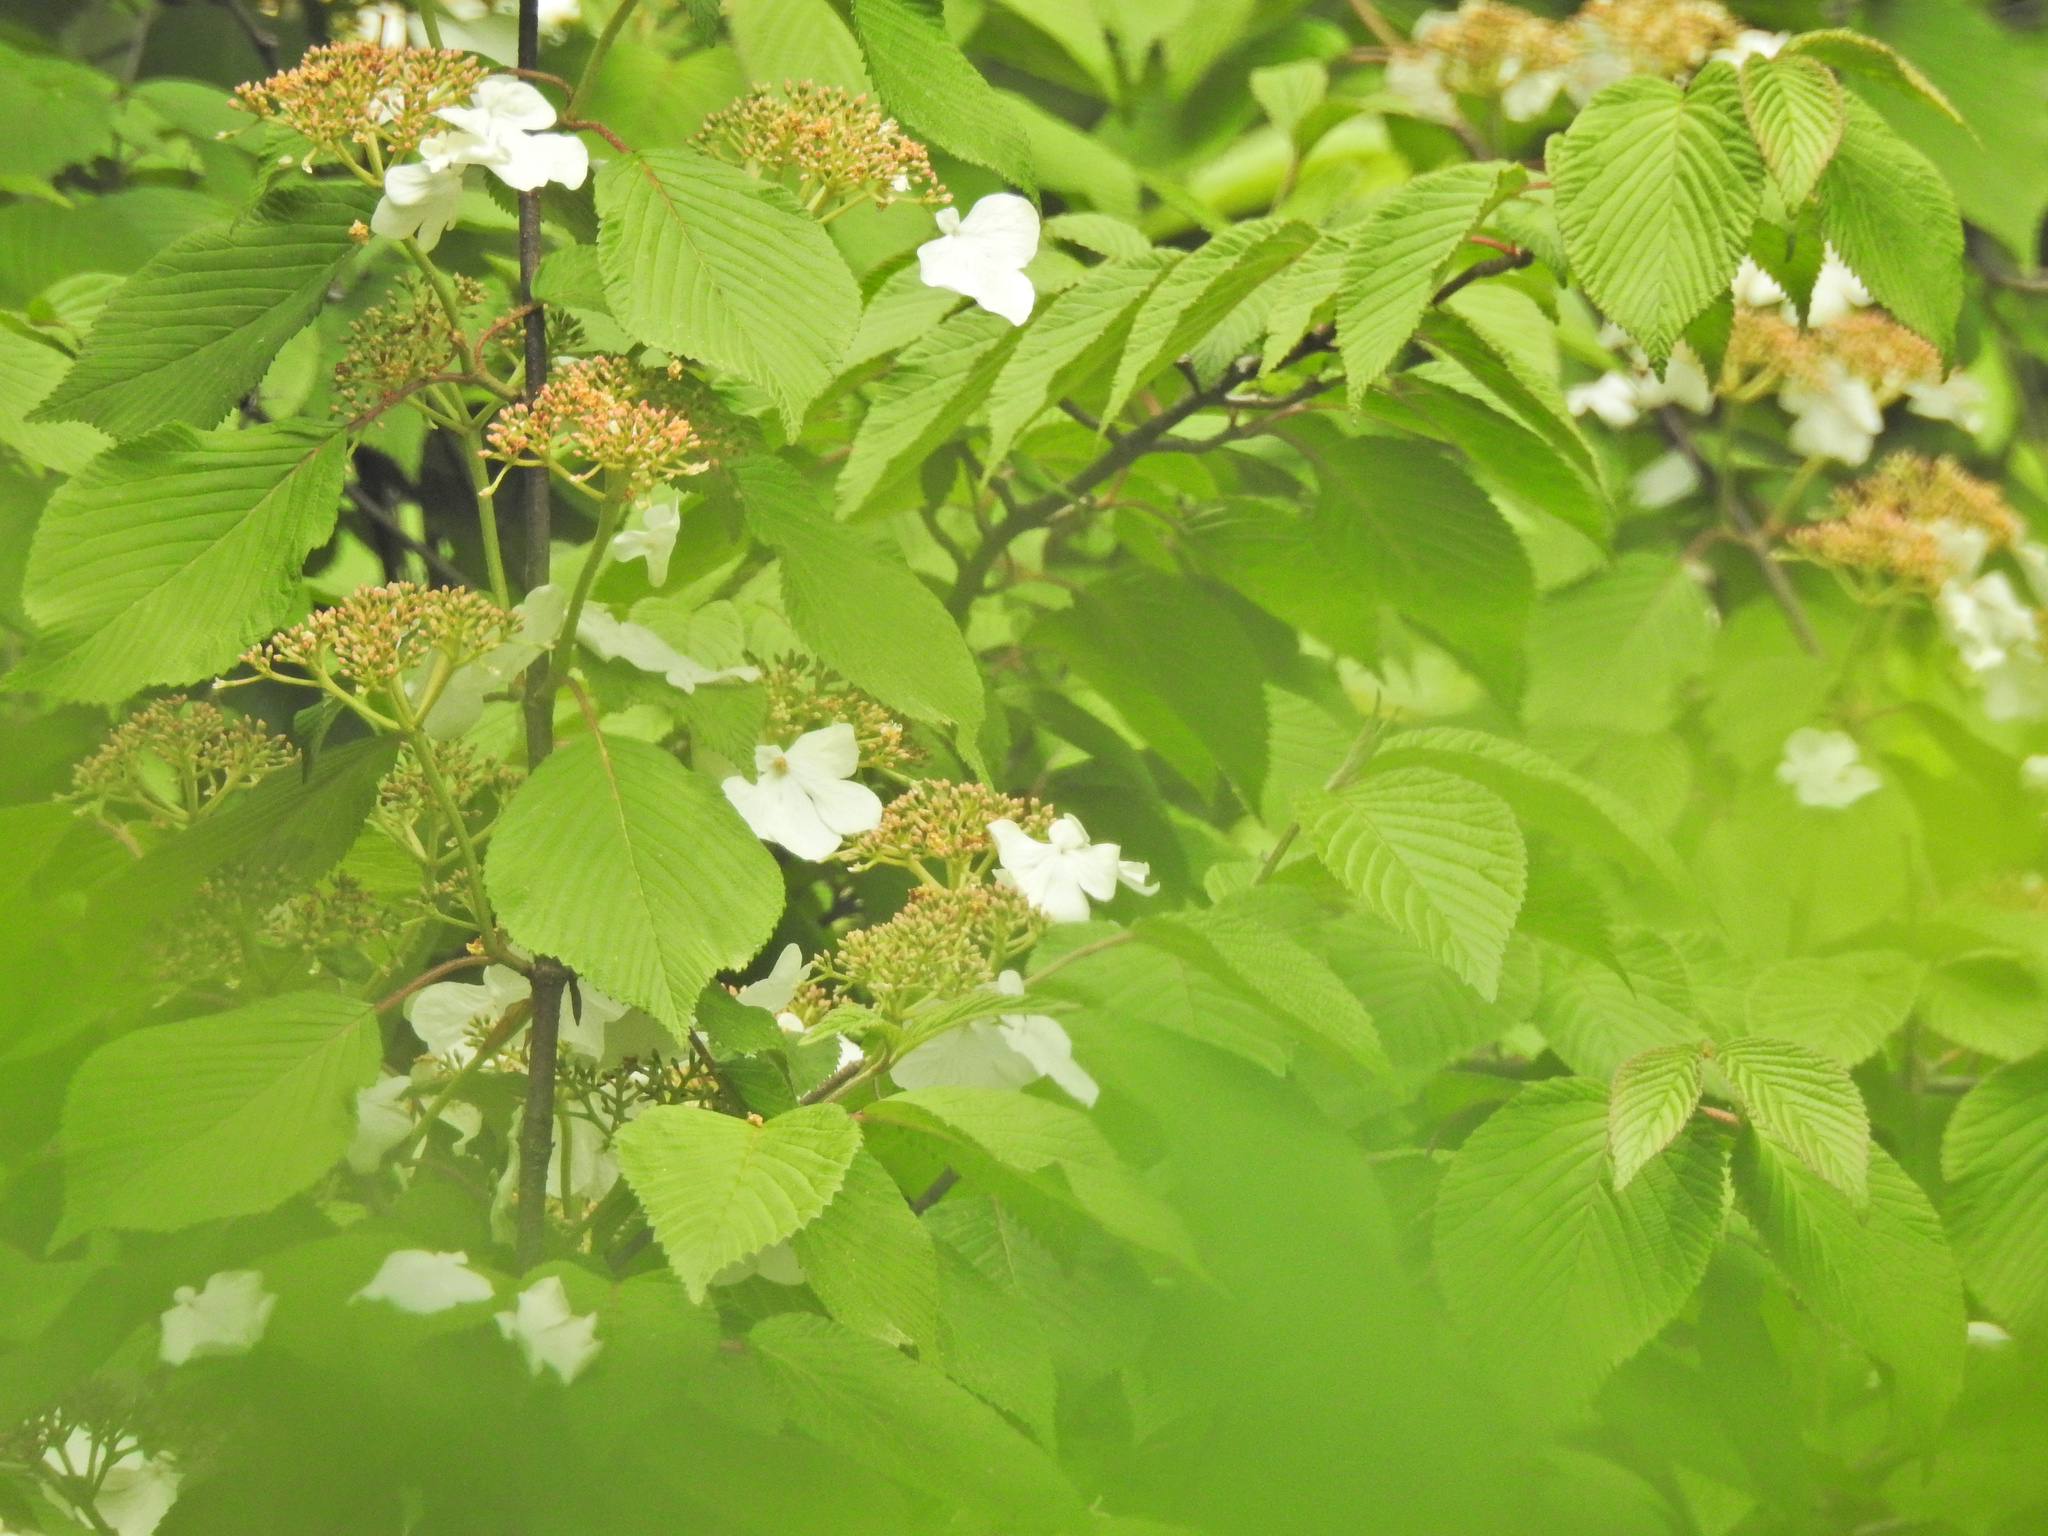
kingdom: Plantae
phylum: Tracheophyta
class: Magnoliopsida
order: Dipsacales
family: Viburnaceae
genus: Viburnum
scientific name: Viburnum plicatum
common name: Japanese snowball
